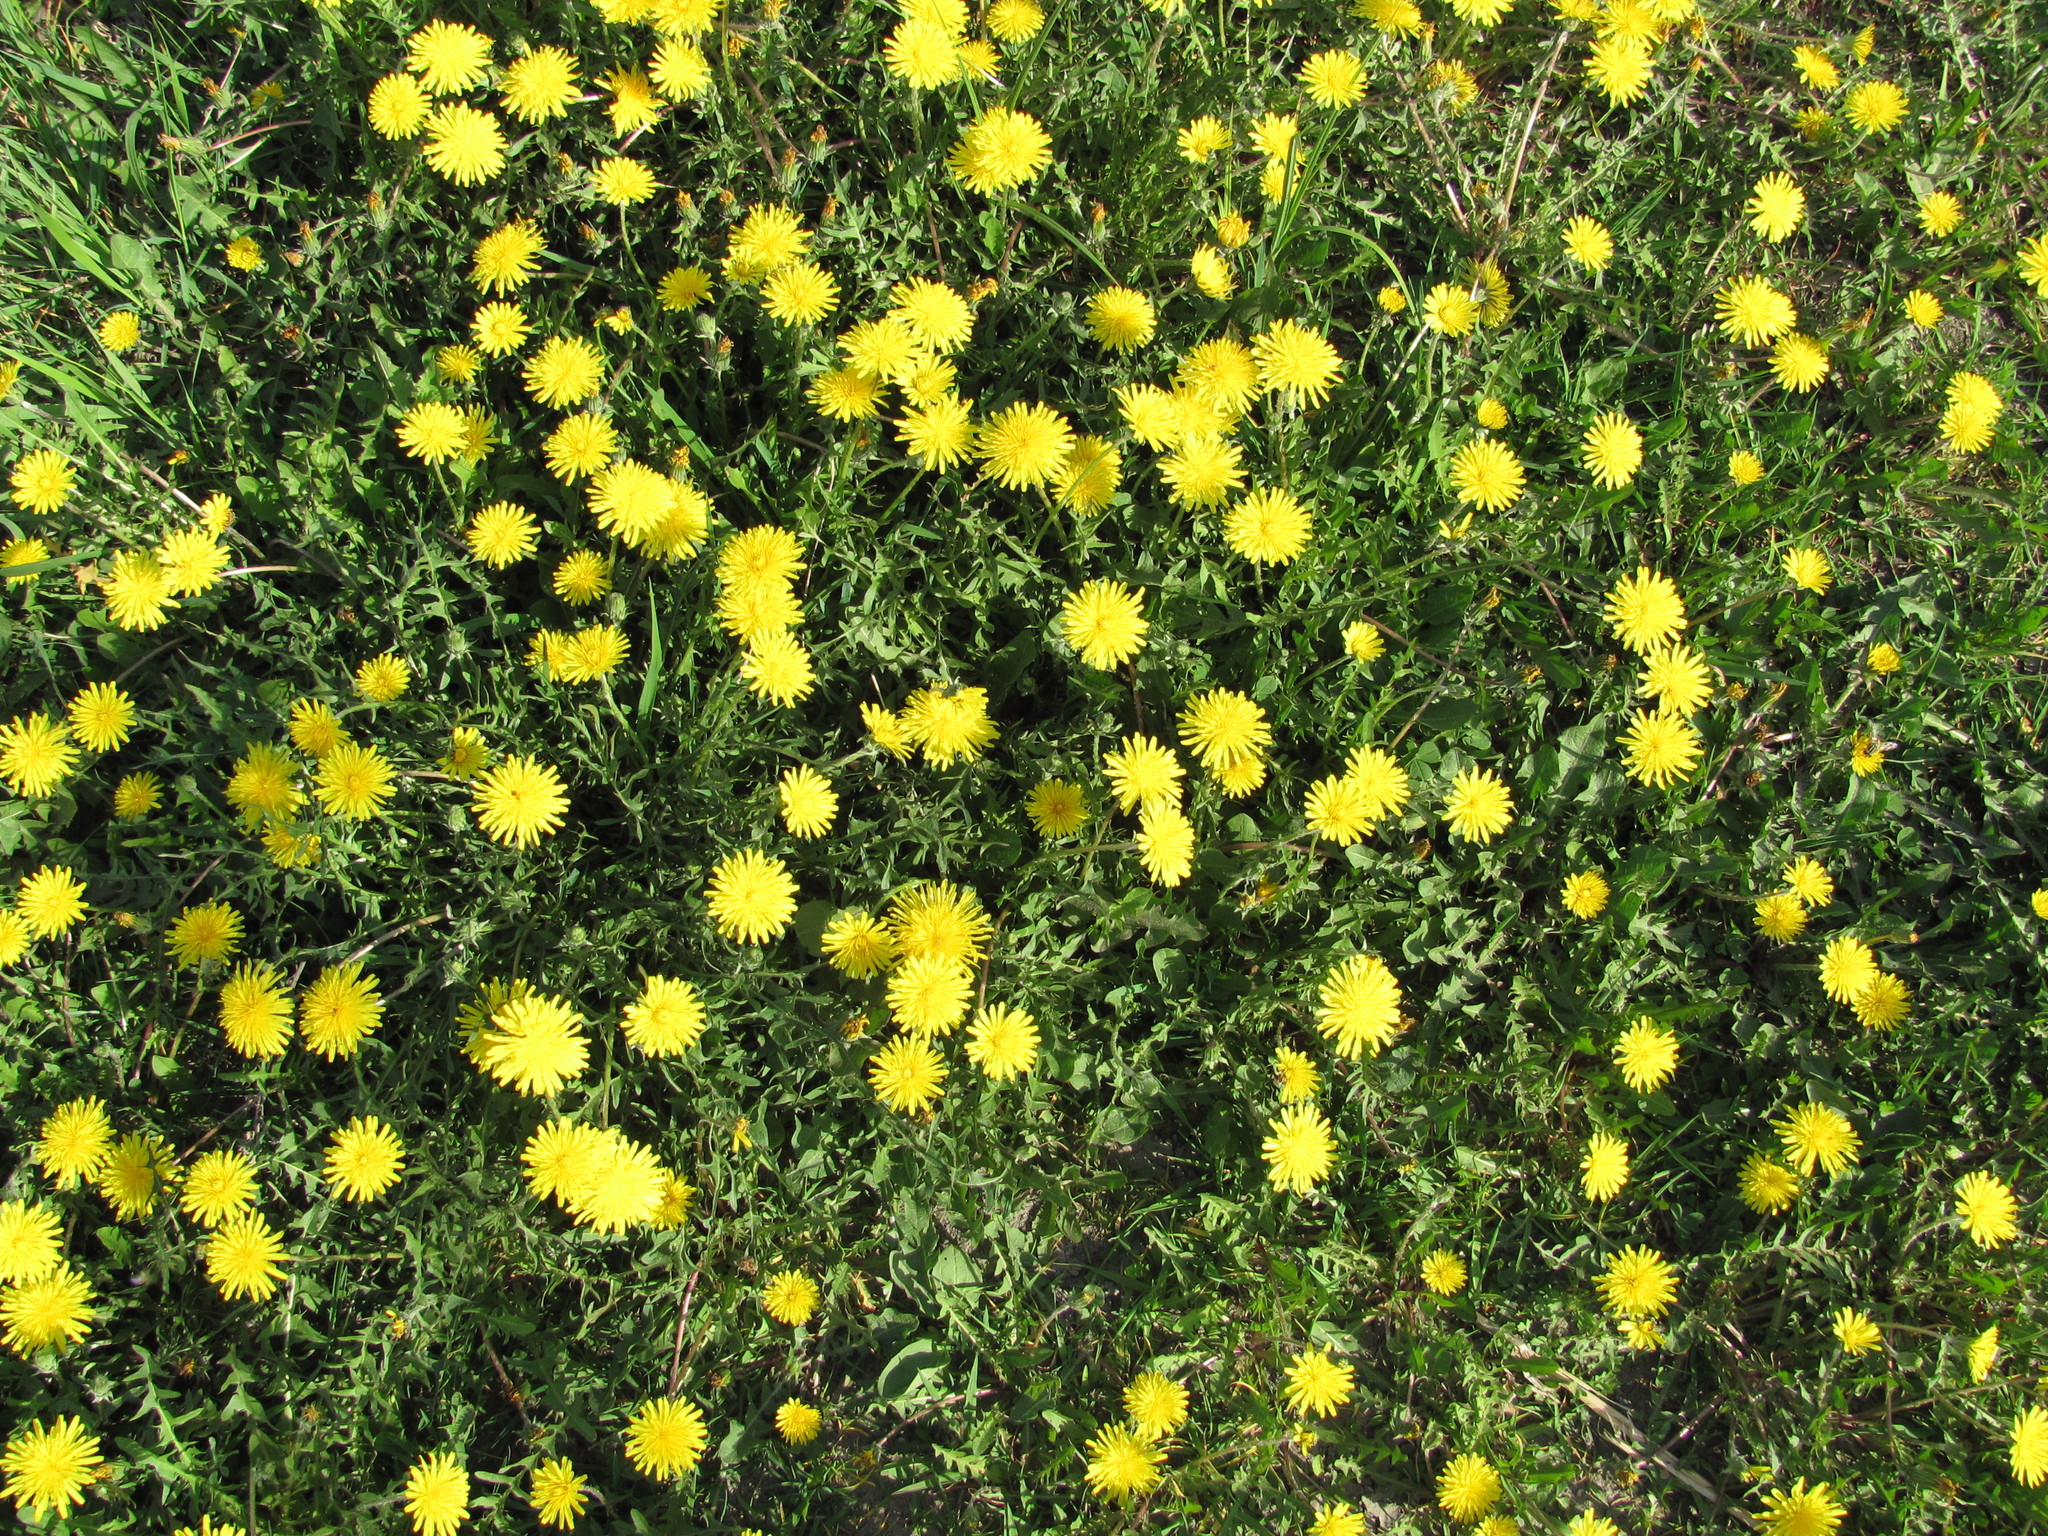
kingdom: Plantae
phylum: Tracheophyta
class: Magnoliopsida
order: Asterales
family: Asteraceae
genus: Taraxacum
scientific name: Taraxacum officinale
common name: Common dandelion
